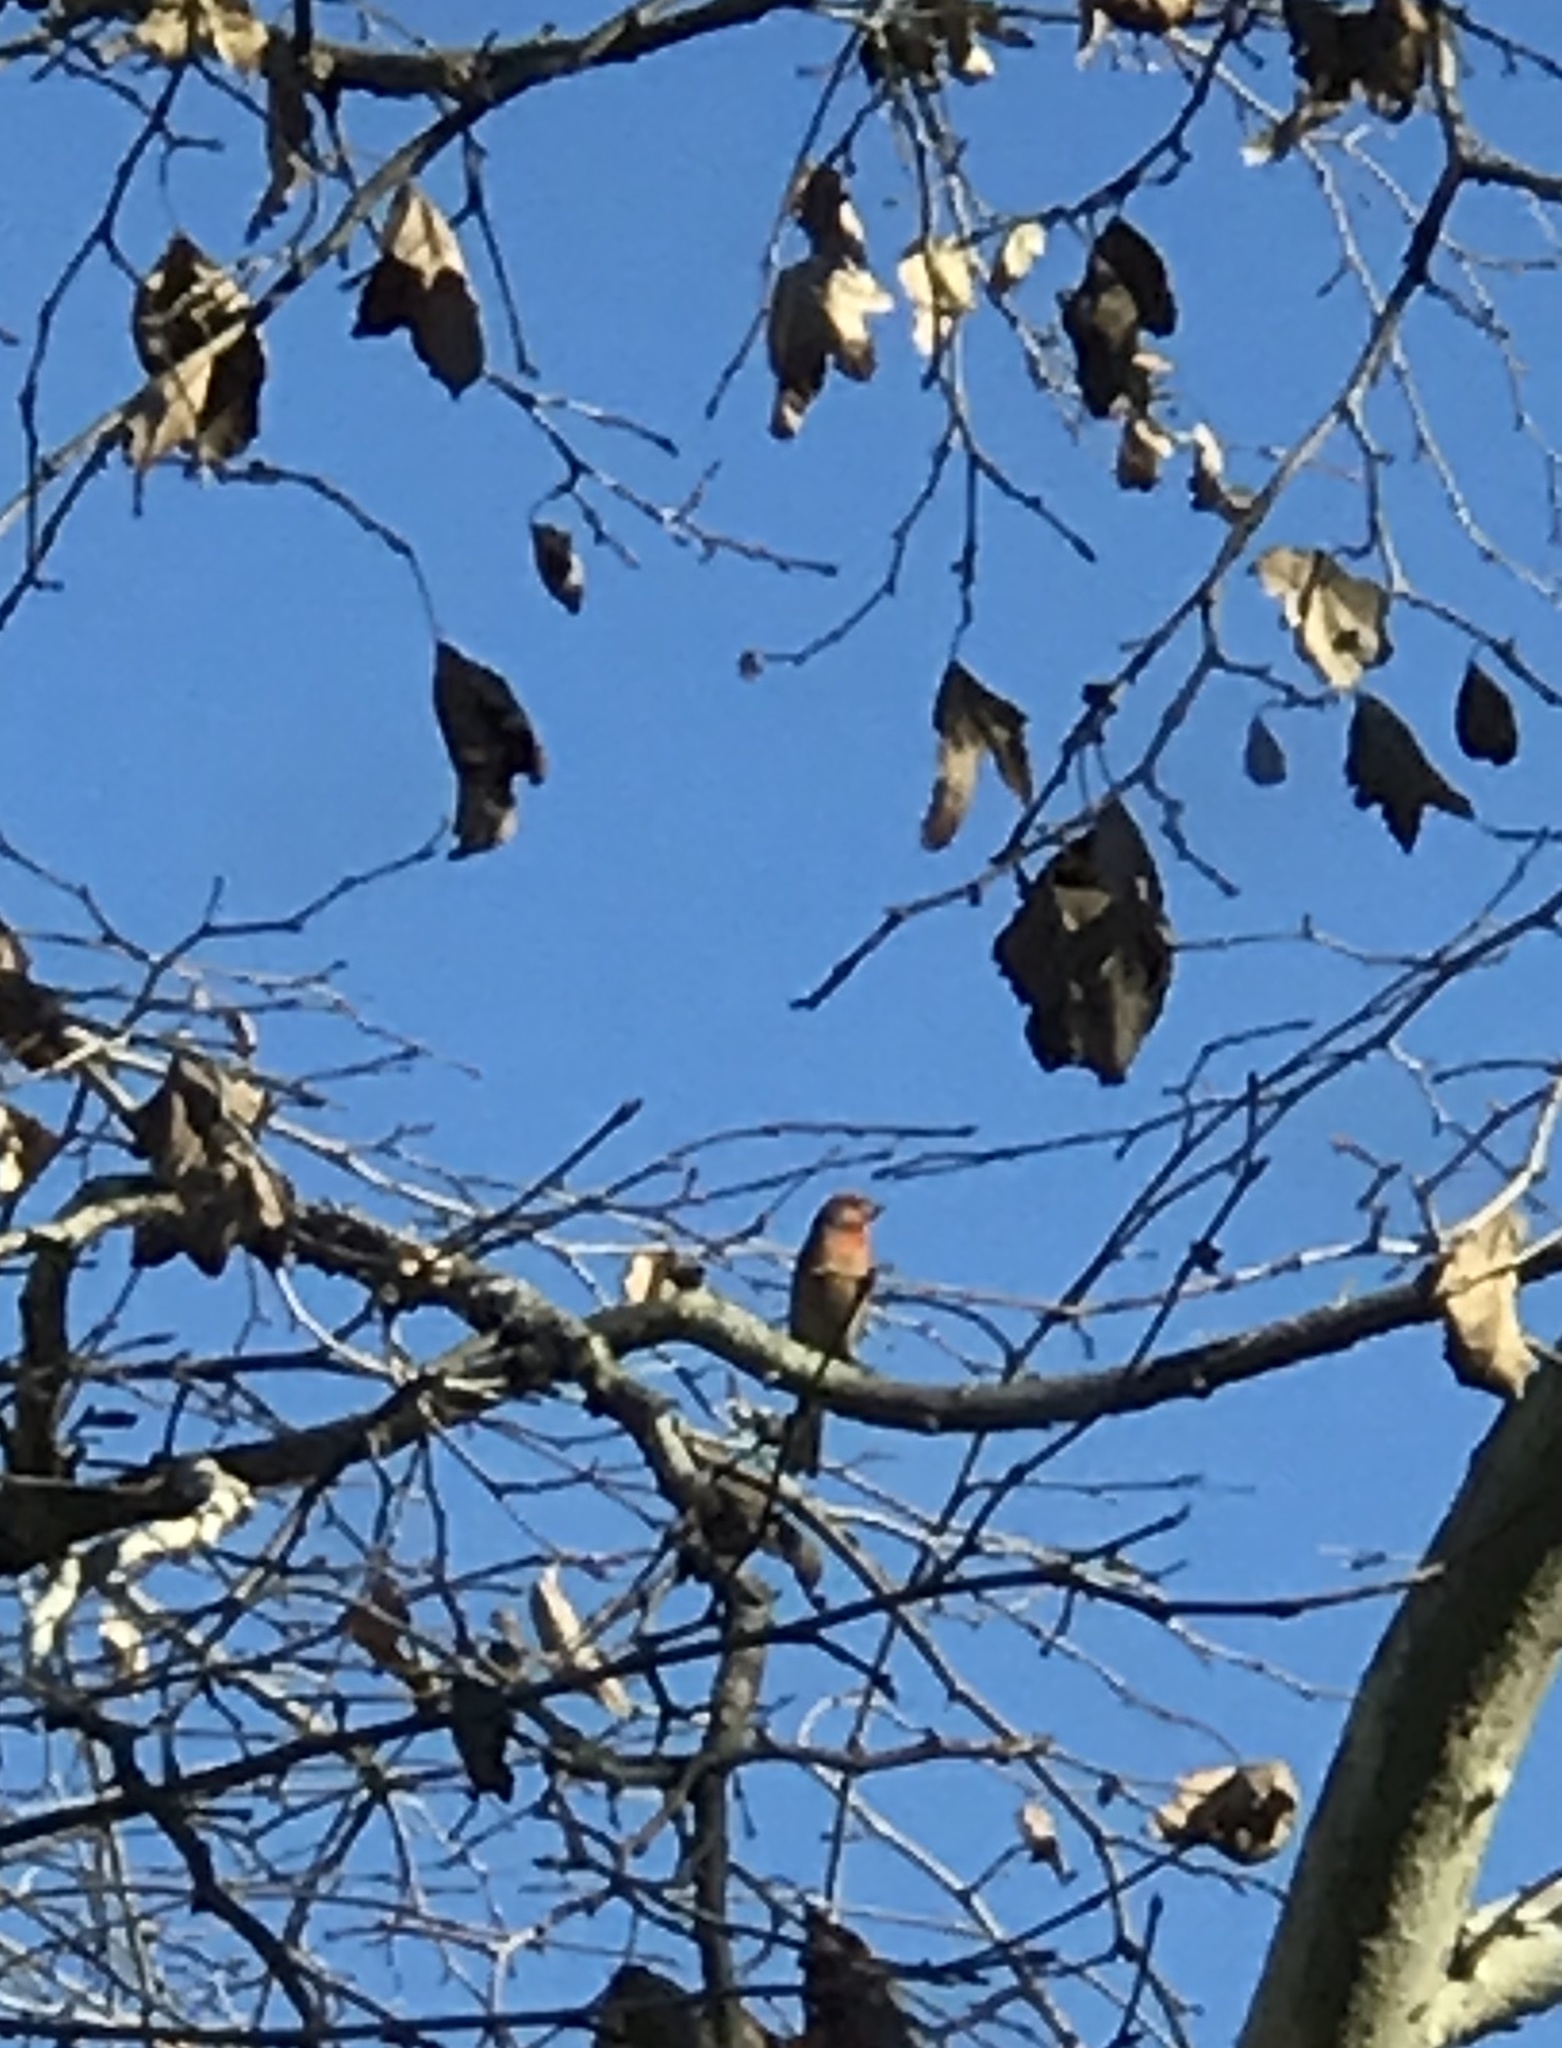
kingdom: Animalia
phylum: Chordata
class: Aves
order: Passeriformes
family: Fringillidae
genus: Haemorhous
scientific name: Haemorhous mexicanus
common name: House finch
